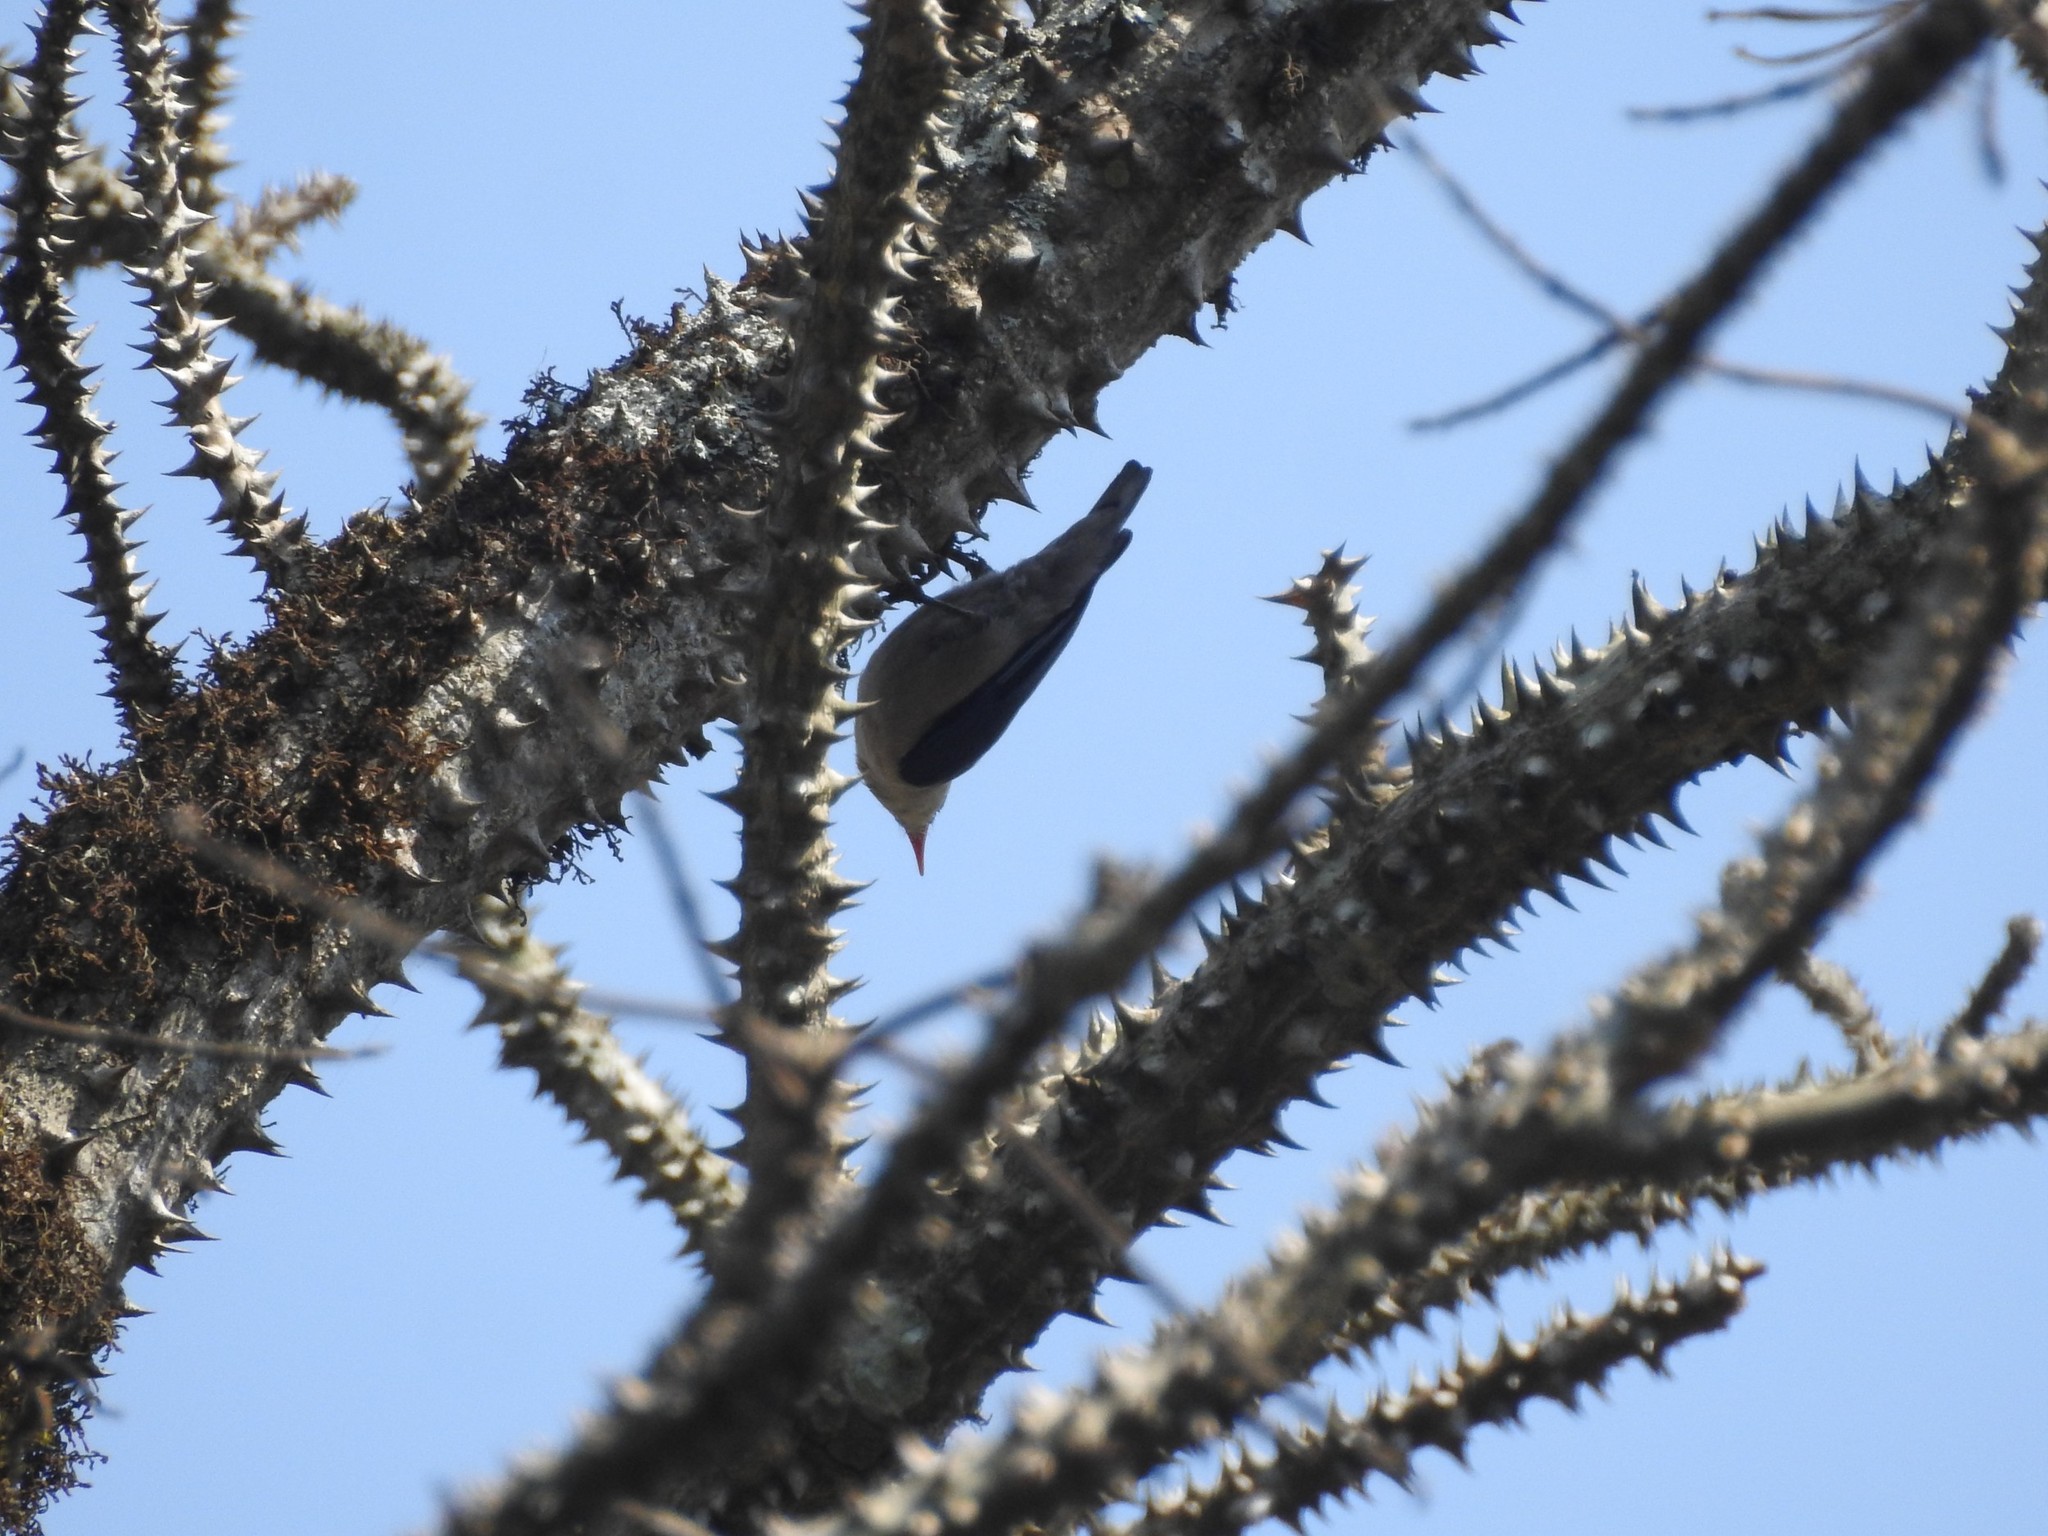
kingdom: Animalia
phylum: Chordata
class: Aves
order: Passeriformes
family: Sittidae
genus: Sitta
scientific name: Sitta frontalis
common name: Velvet-fronted nuthatch
